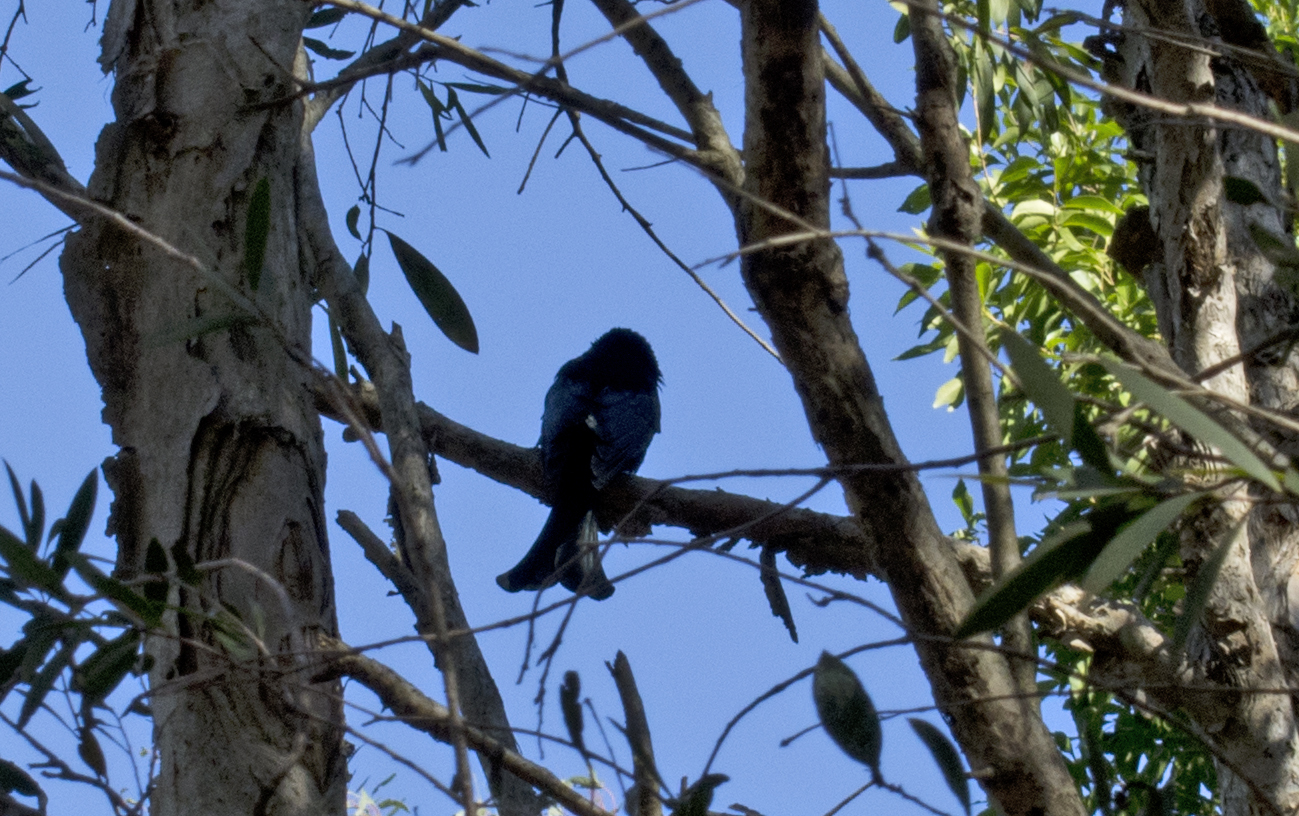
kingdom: Animalia
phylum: Chordata
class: Aves
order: Passeriformes
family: Dicruridae
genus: Dicrurus
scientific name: Dicrurus bracteatus
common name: Spangled drongo
